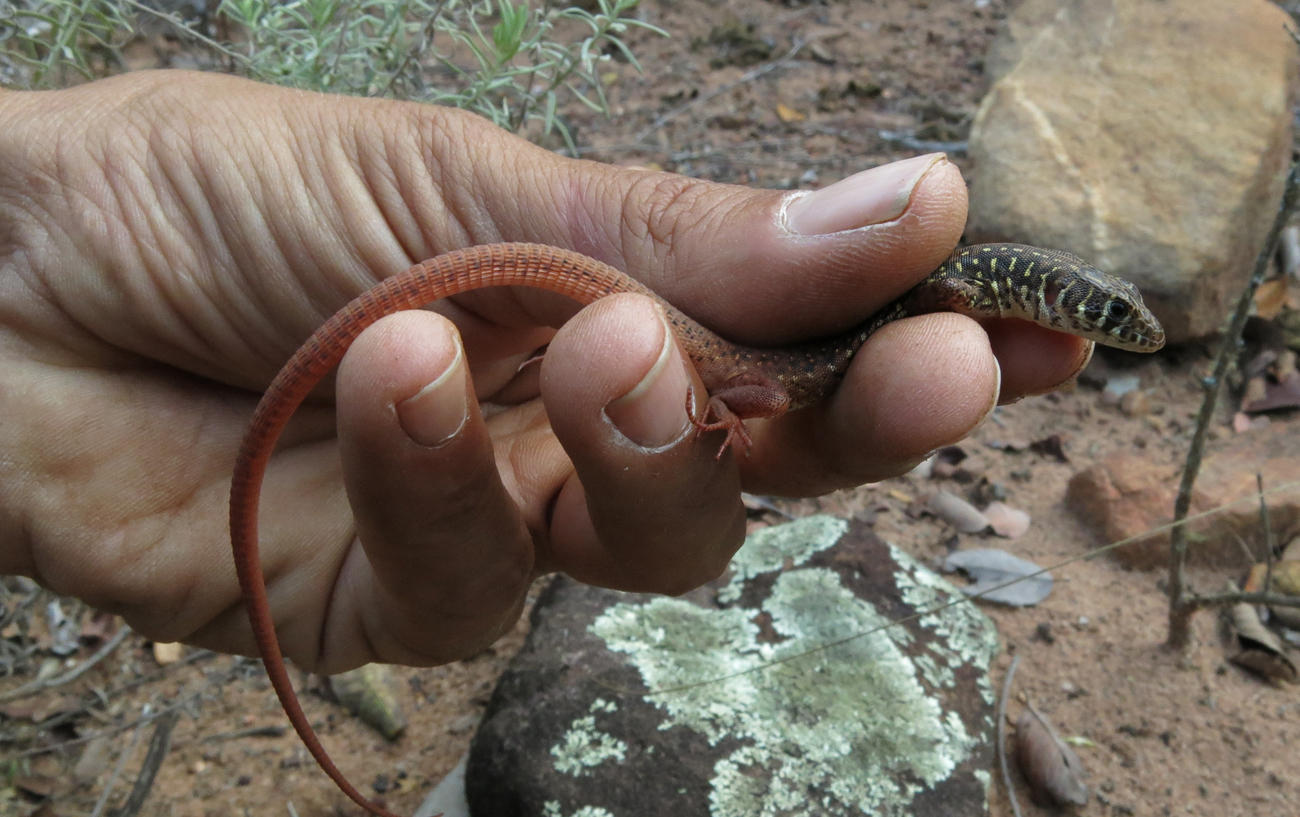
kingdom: Animalia
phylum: Chordata
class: Squamata
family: Lacertidae
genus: Nucras
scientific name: Nucras intertexta
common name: Spotted sandveld lizard
